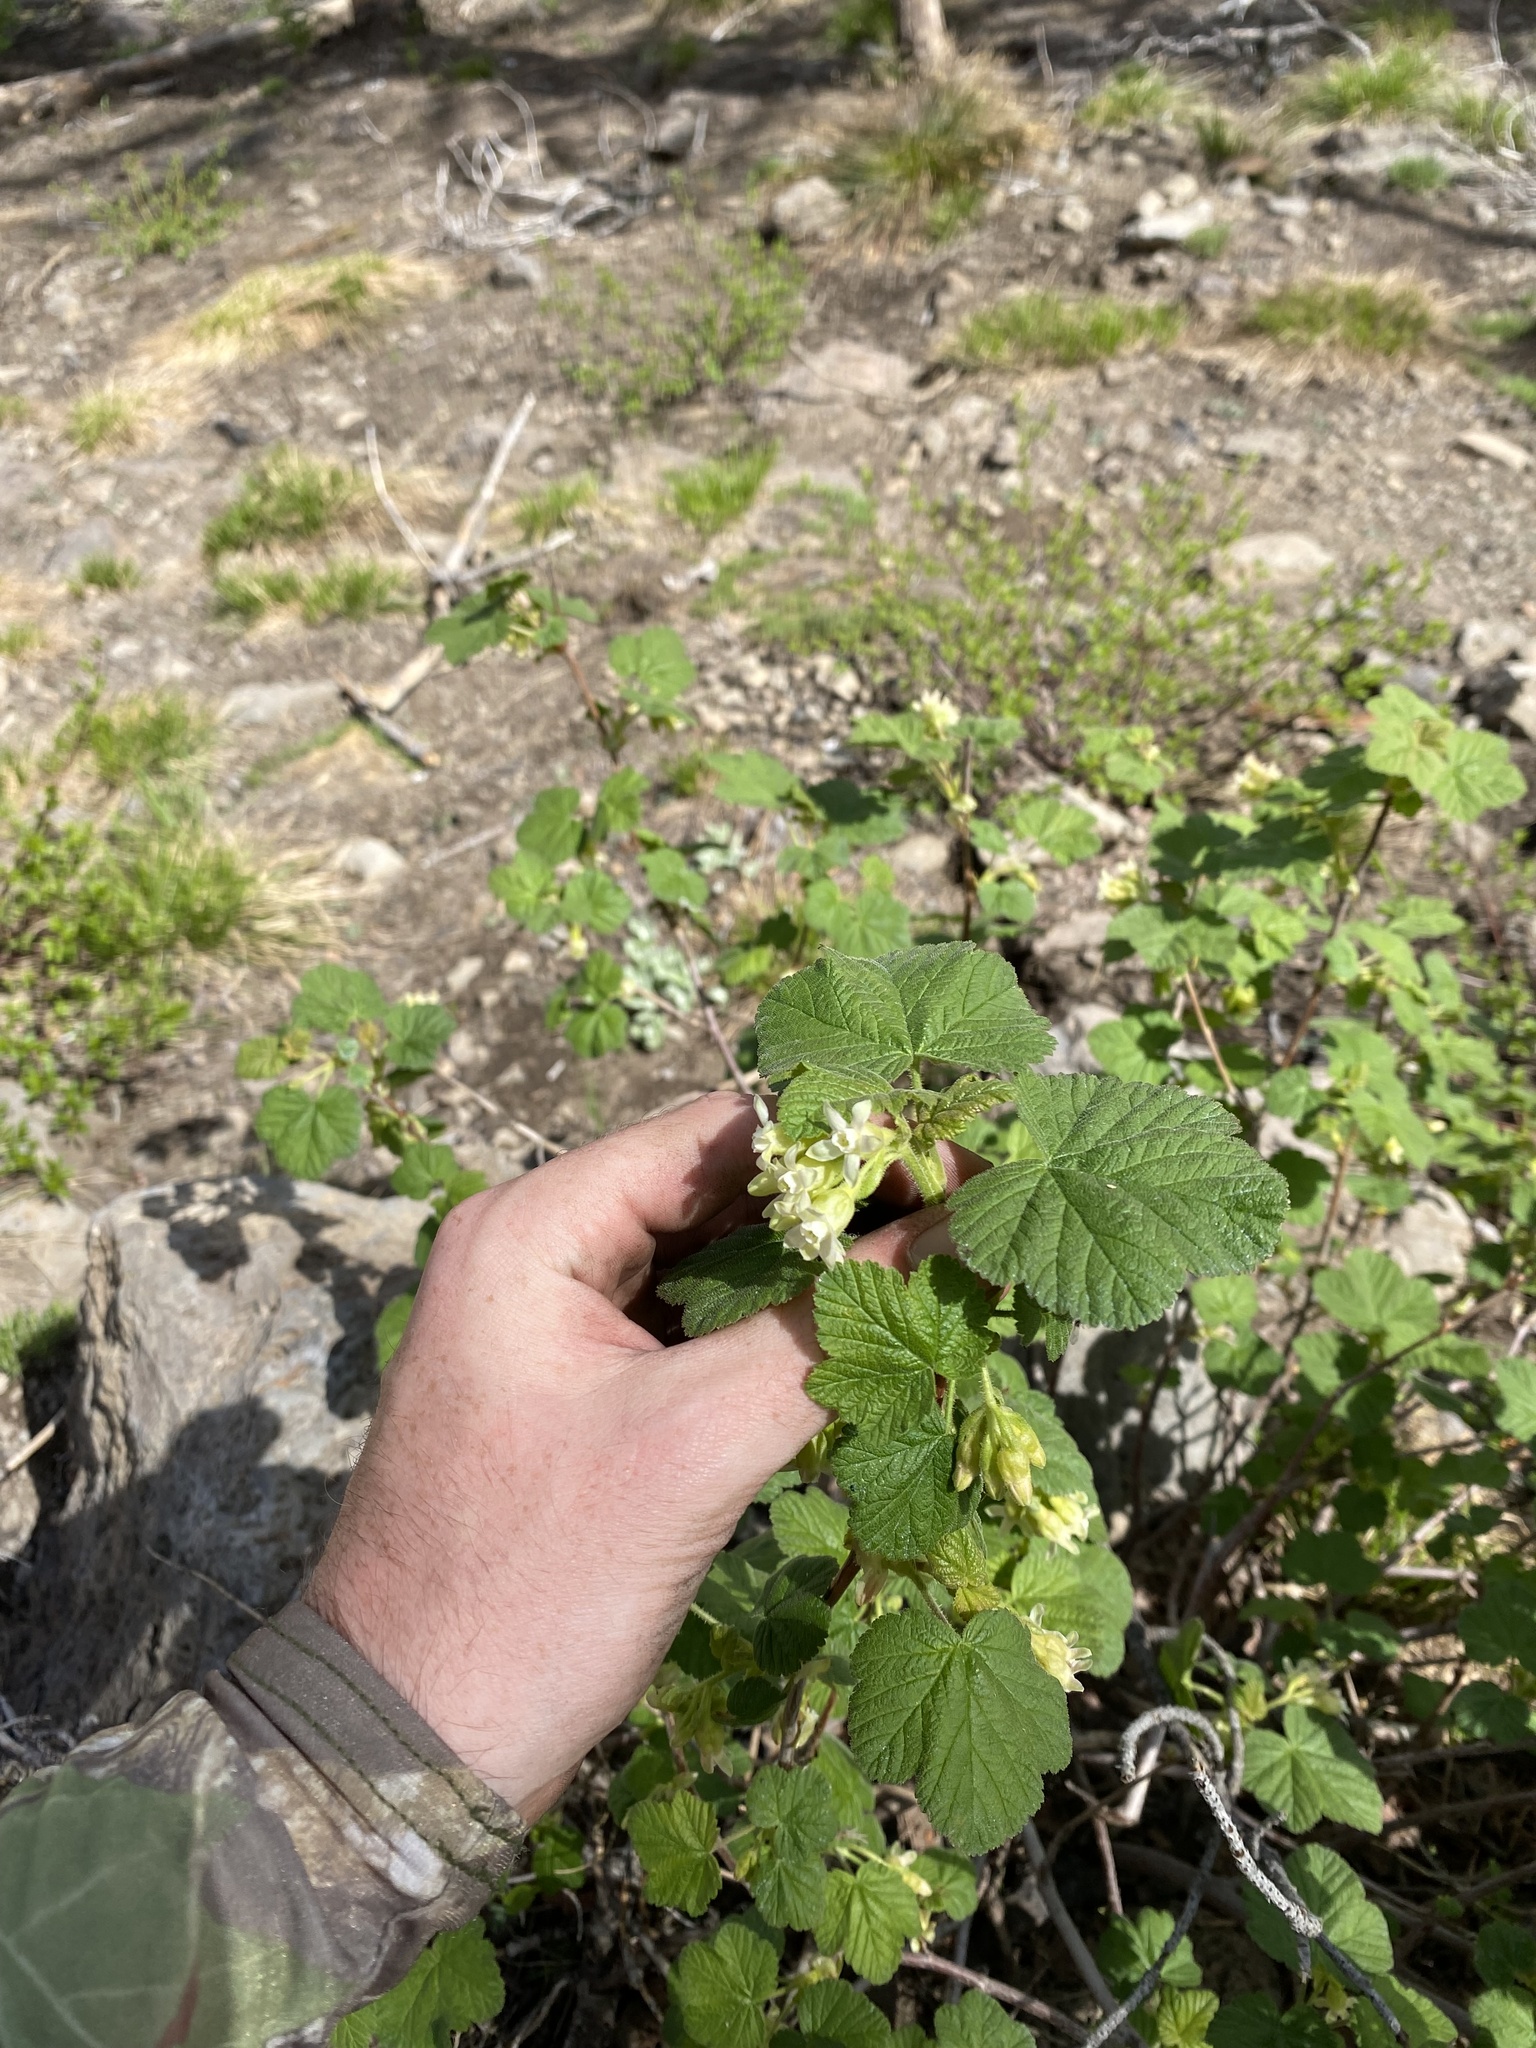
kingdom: Plantae
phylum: Tracheophyta
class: Magnoliopsida
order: Saxifragales
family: Grossulariaceae
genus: Ribes
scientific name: Ribes viscosissimum
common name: Sticky currant
